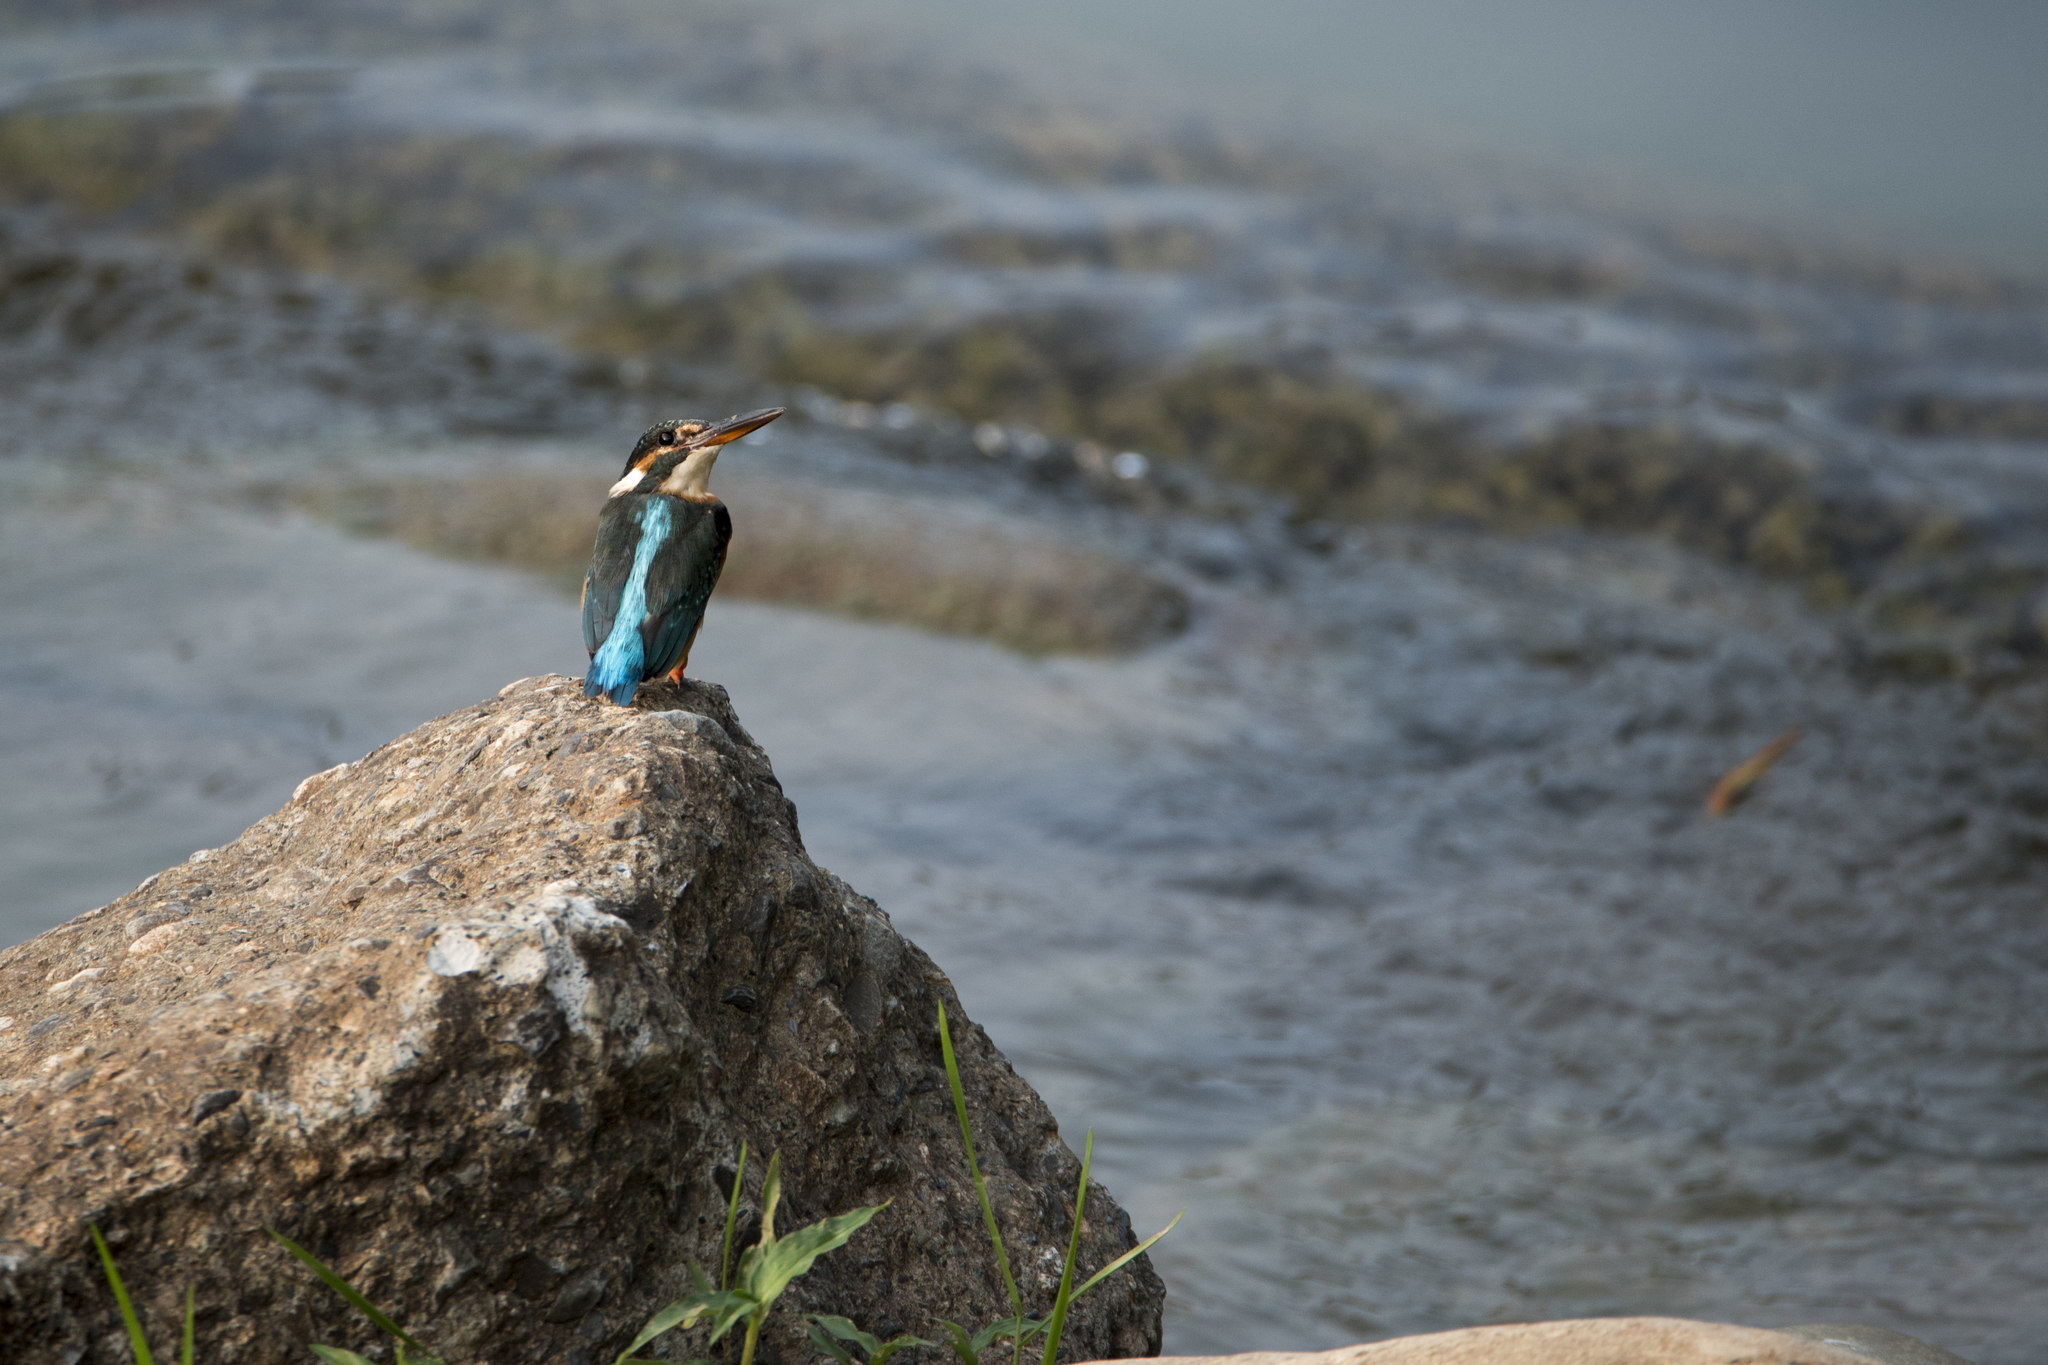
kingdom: Animalia
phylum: Chordata
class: Aves
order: Coraciiformes
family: Alcedinidae
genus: Alcedo
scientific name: Alcedo atthis
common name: Common kingfisher
